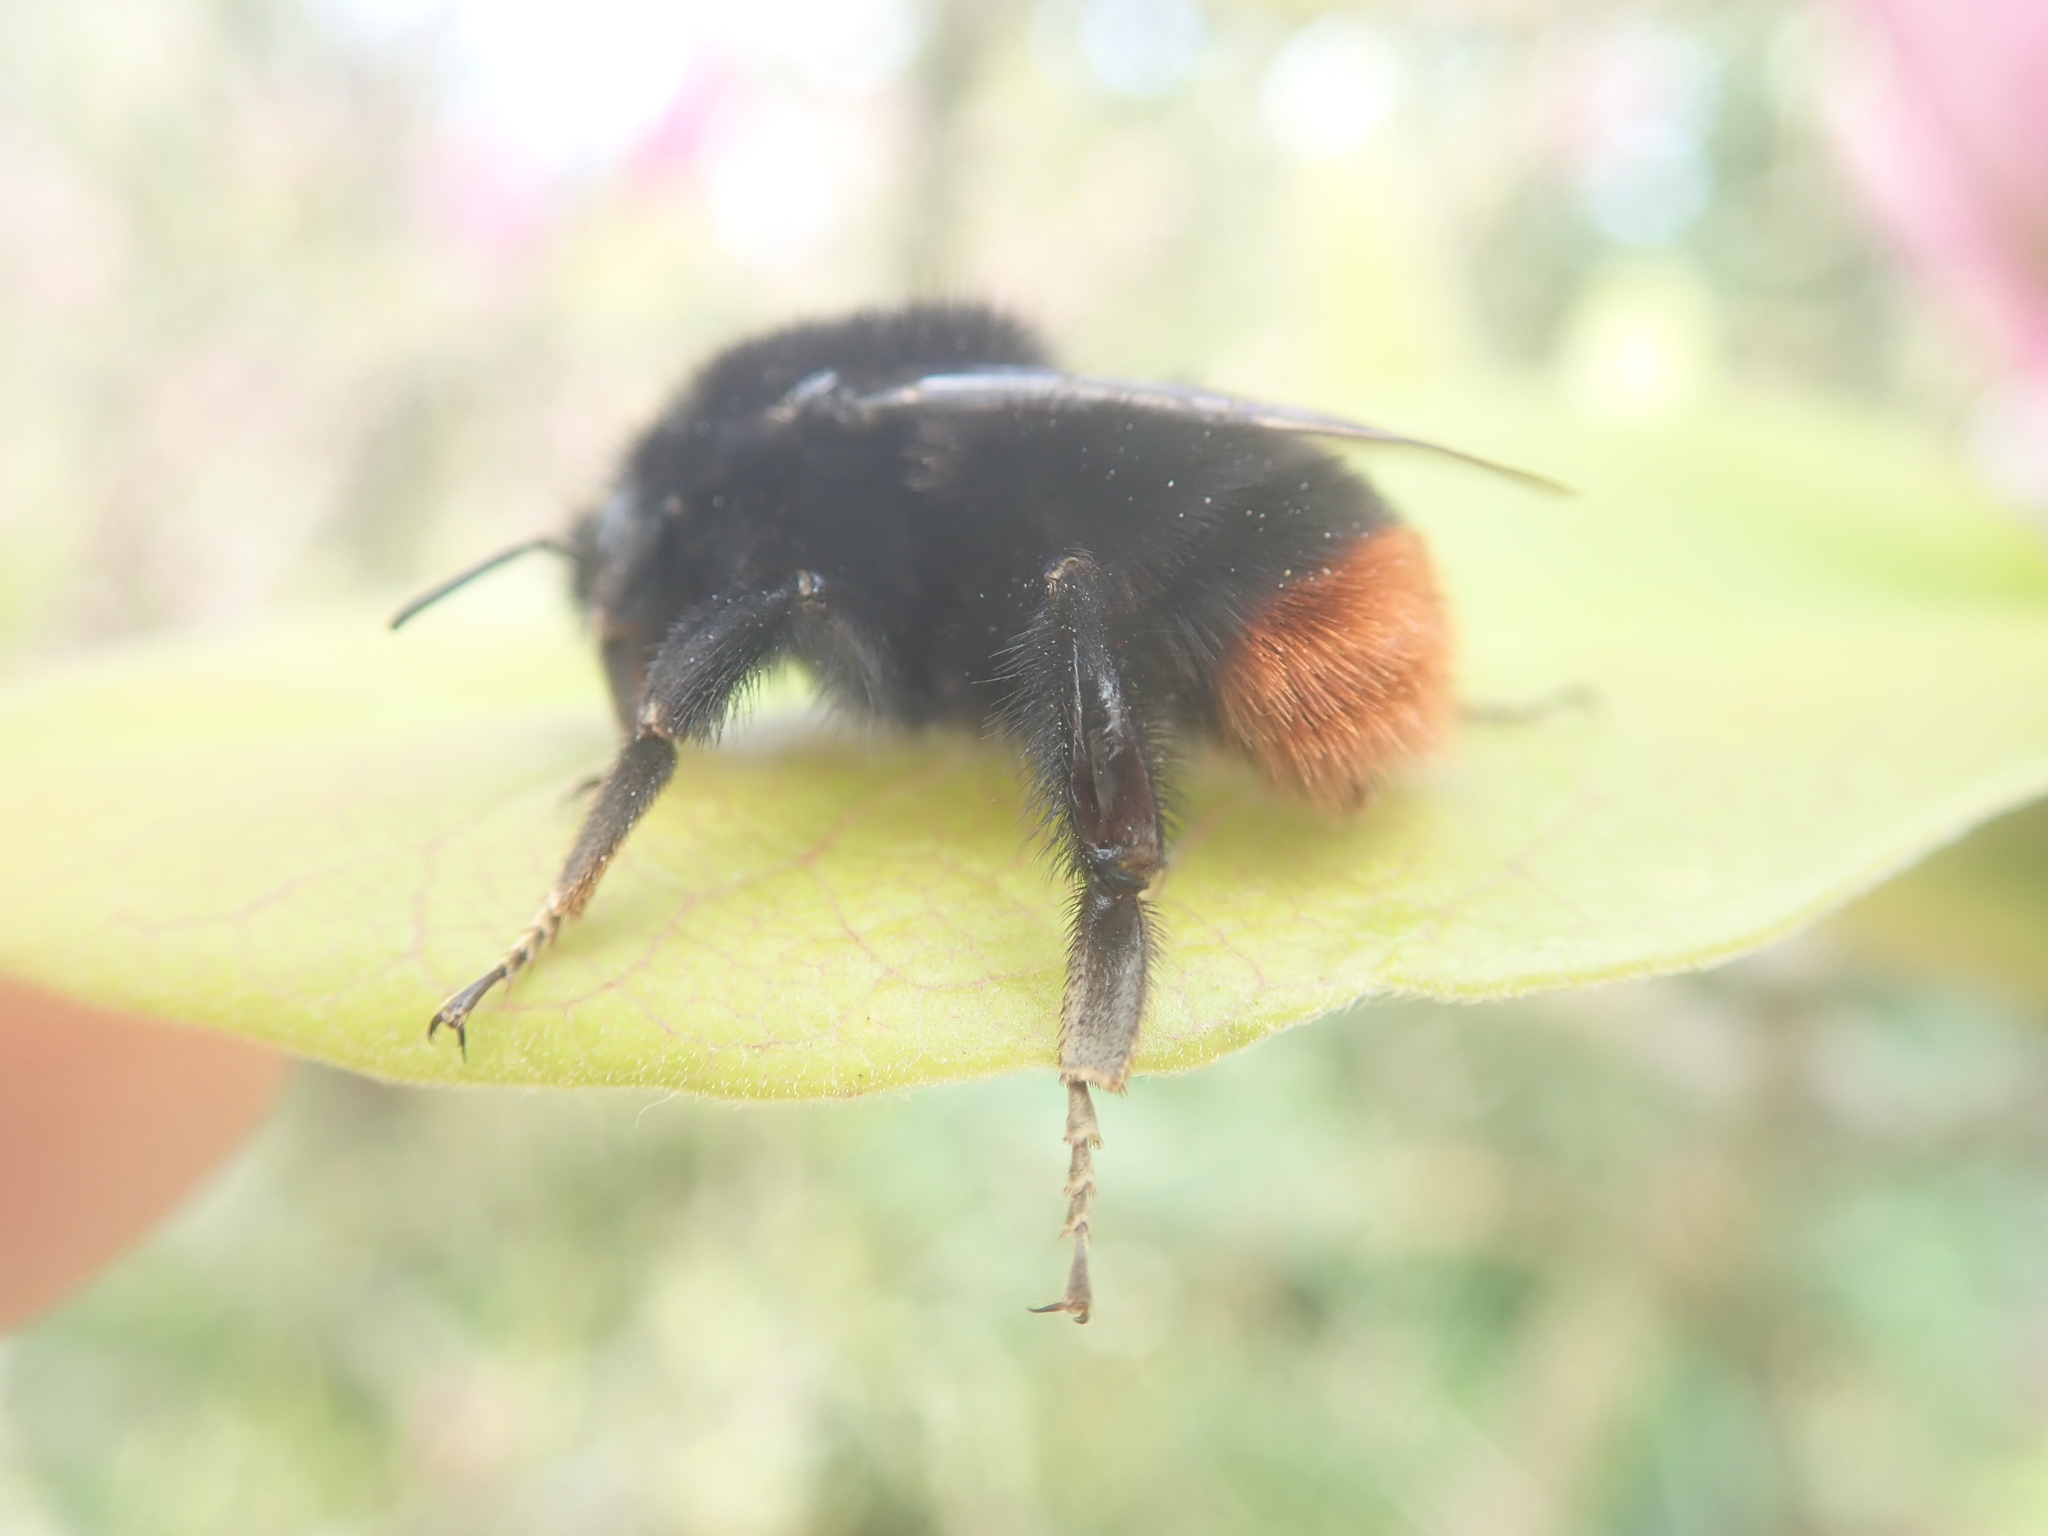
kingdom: Animalia
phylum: Arthropoda
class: Insecta
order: Hymenoptera
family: Apidae
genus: Bombus
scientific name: Bombus lapidarius
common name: Large red-tailed humble-bee
